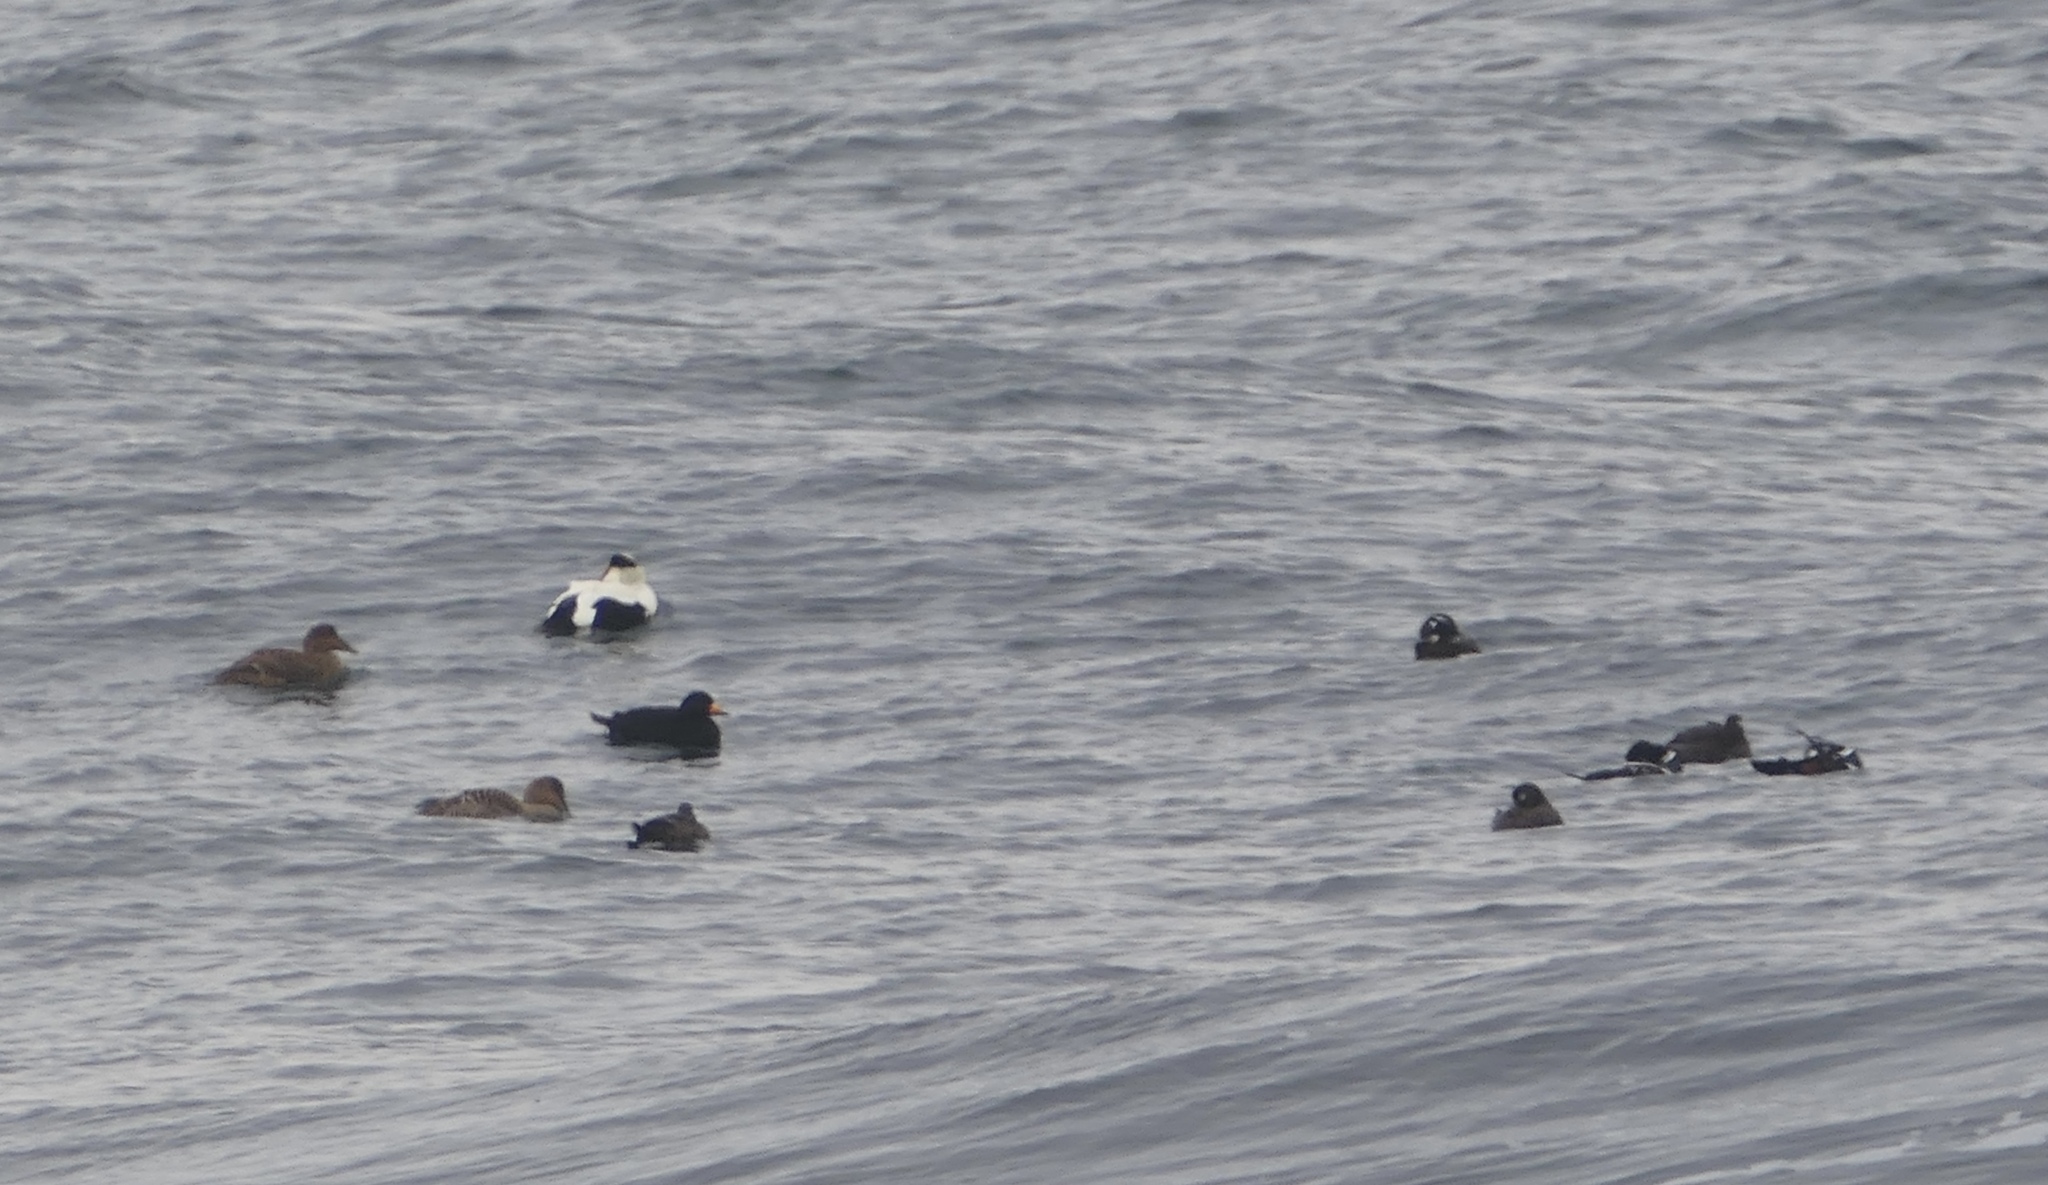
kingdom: Animalia
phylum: Chordata
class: Aves
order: Anseriformes
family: Anatidae
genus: Melanitta
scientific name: Melanitta americana
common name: Black scoter
